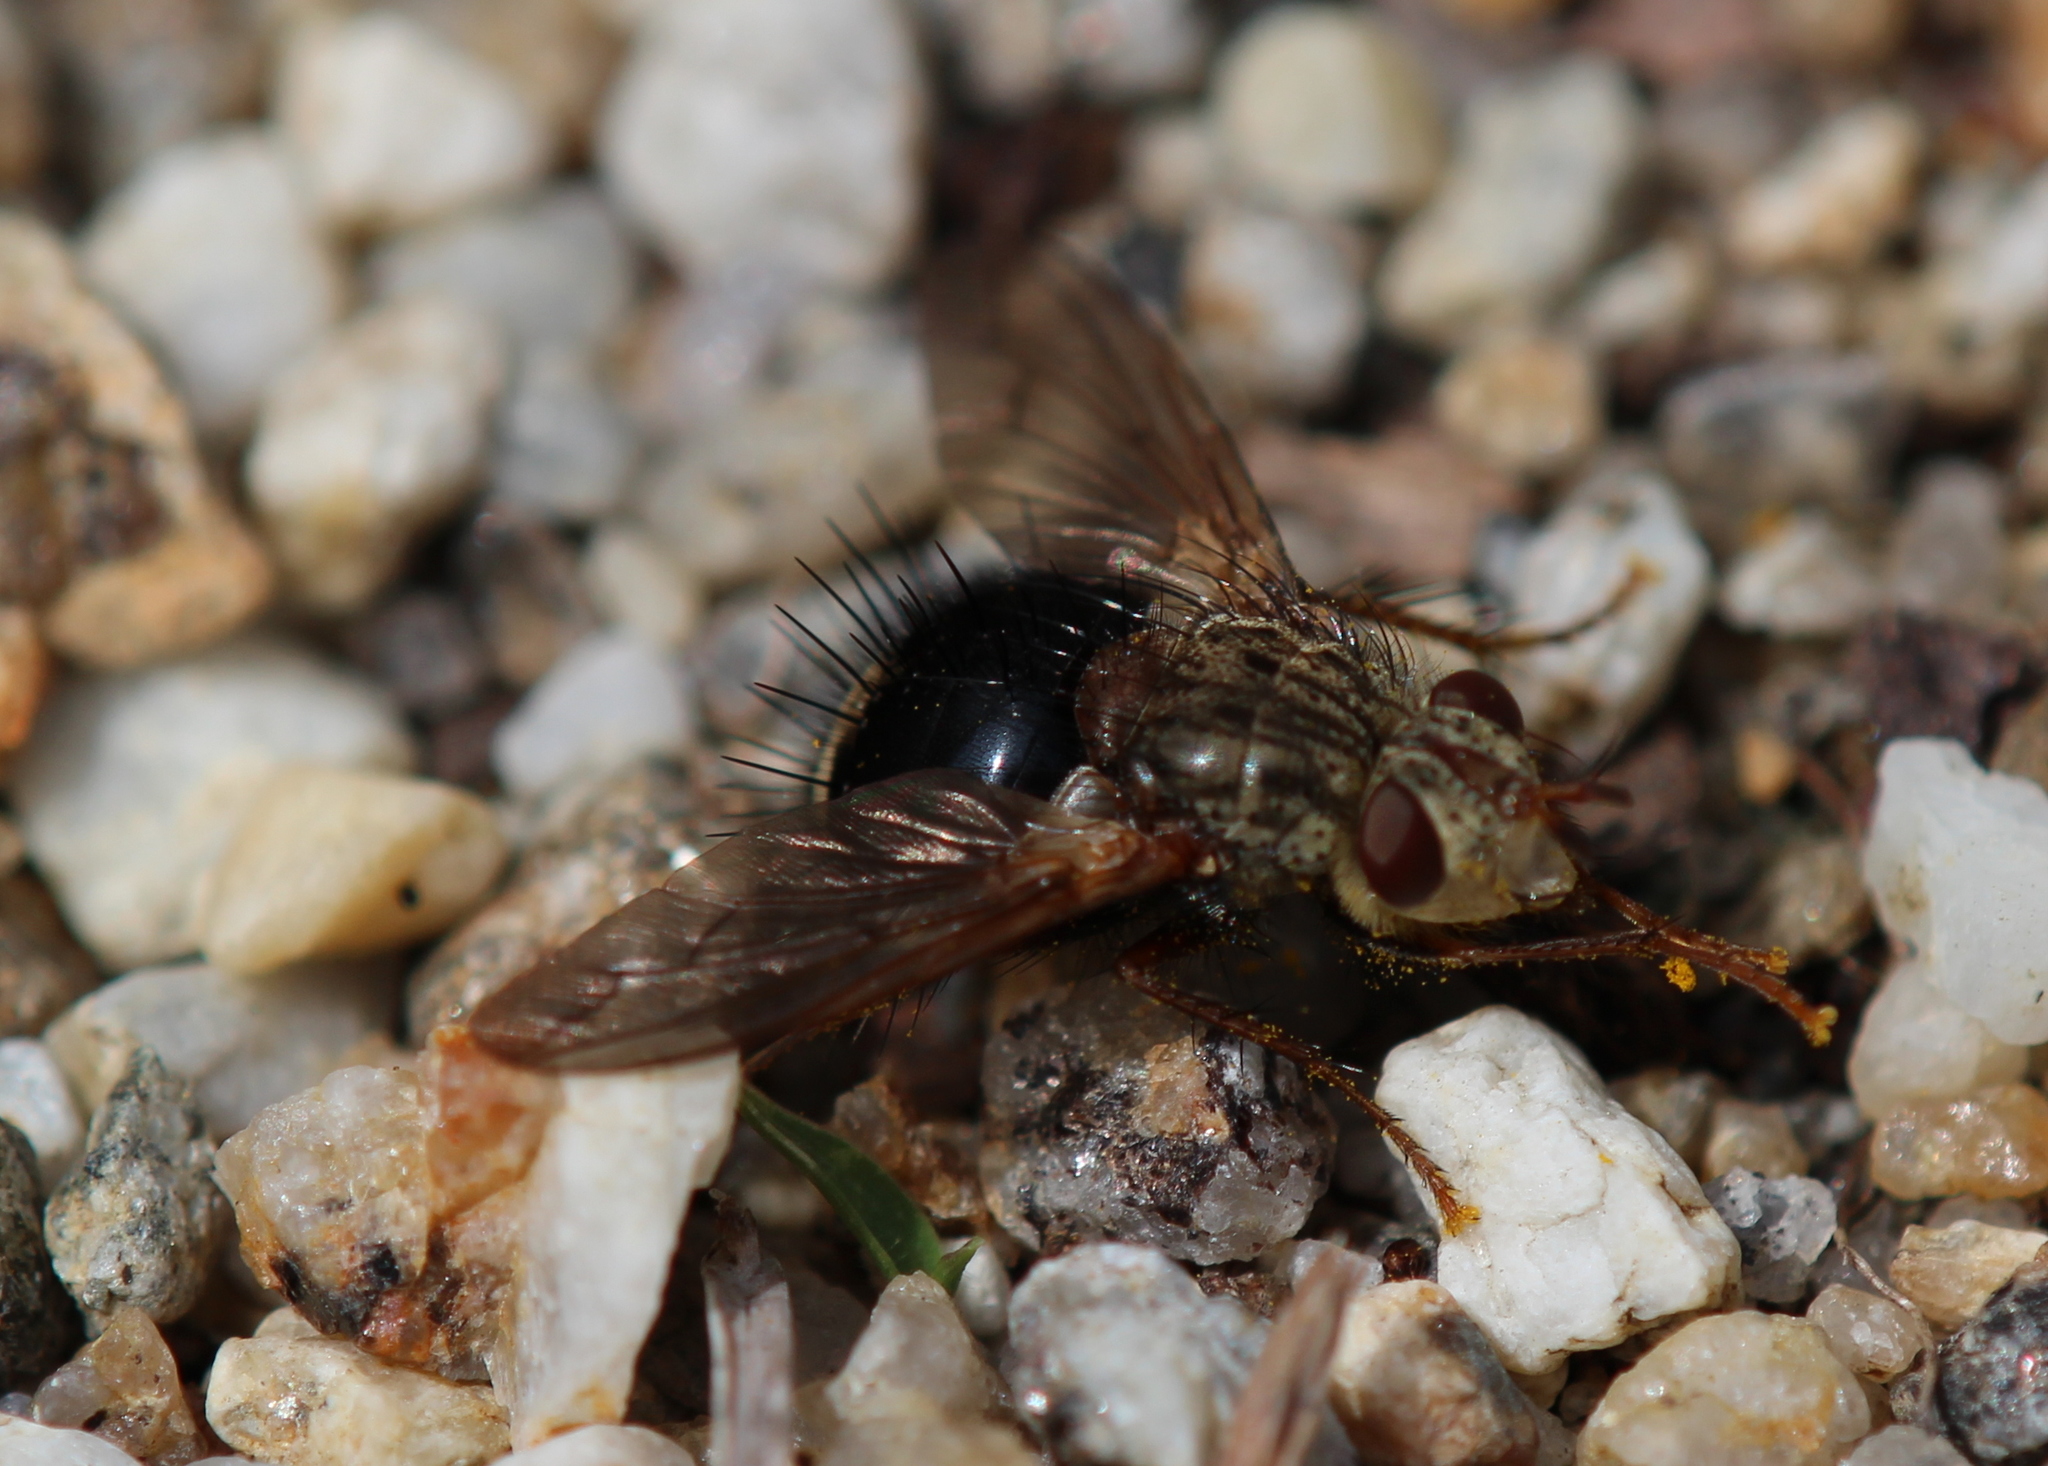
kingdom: Animalia
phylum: Arthropoda
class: Insecta
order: Diptera
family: Tachinidae
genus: Epalpus
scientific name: Epalpus signifer
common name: Early tachinid fly
